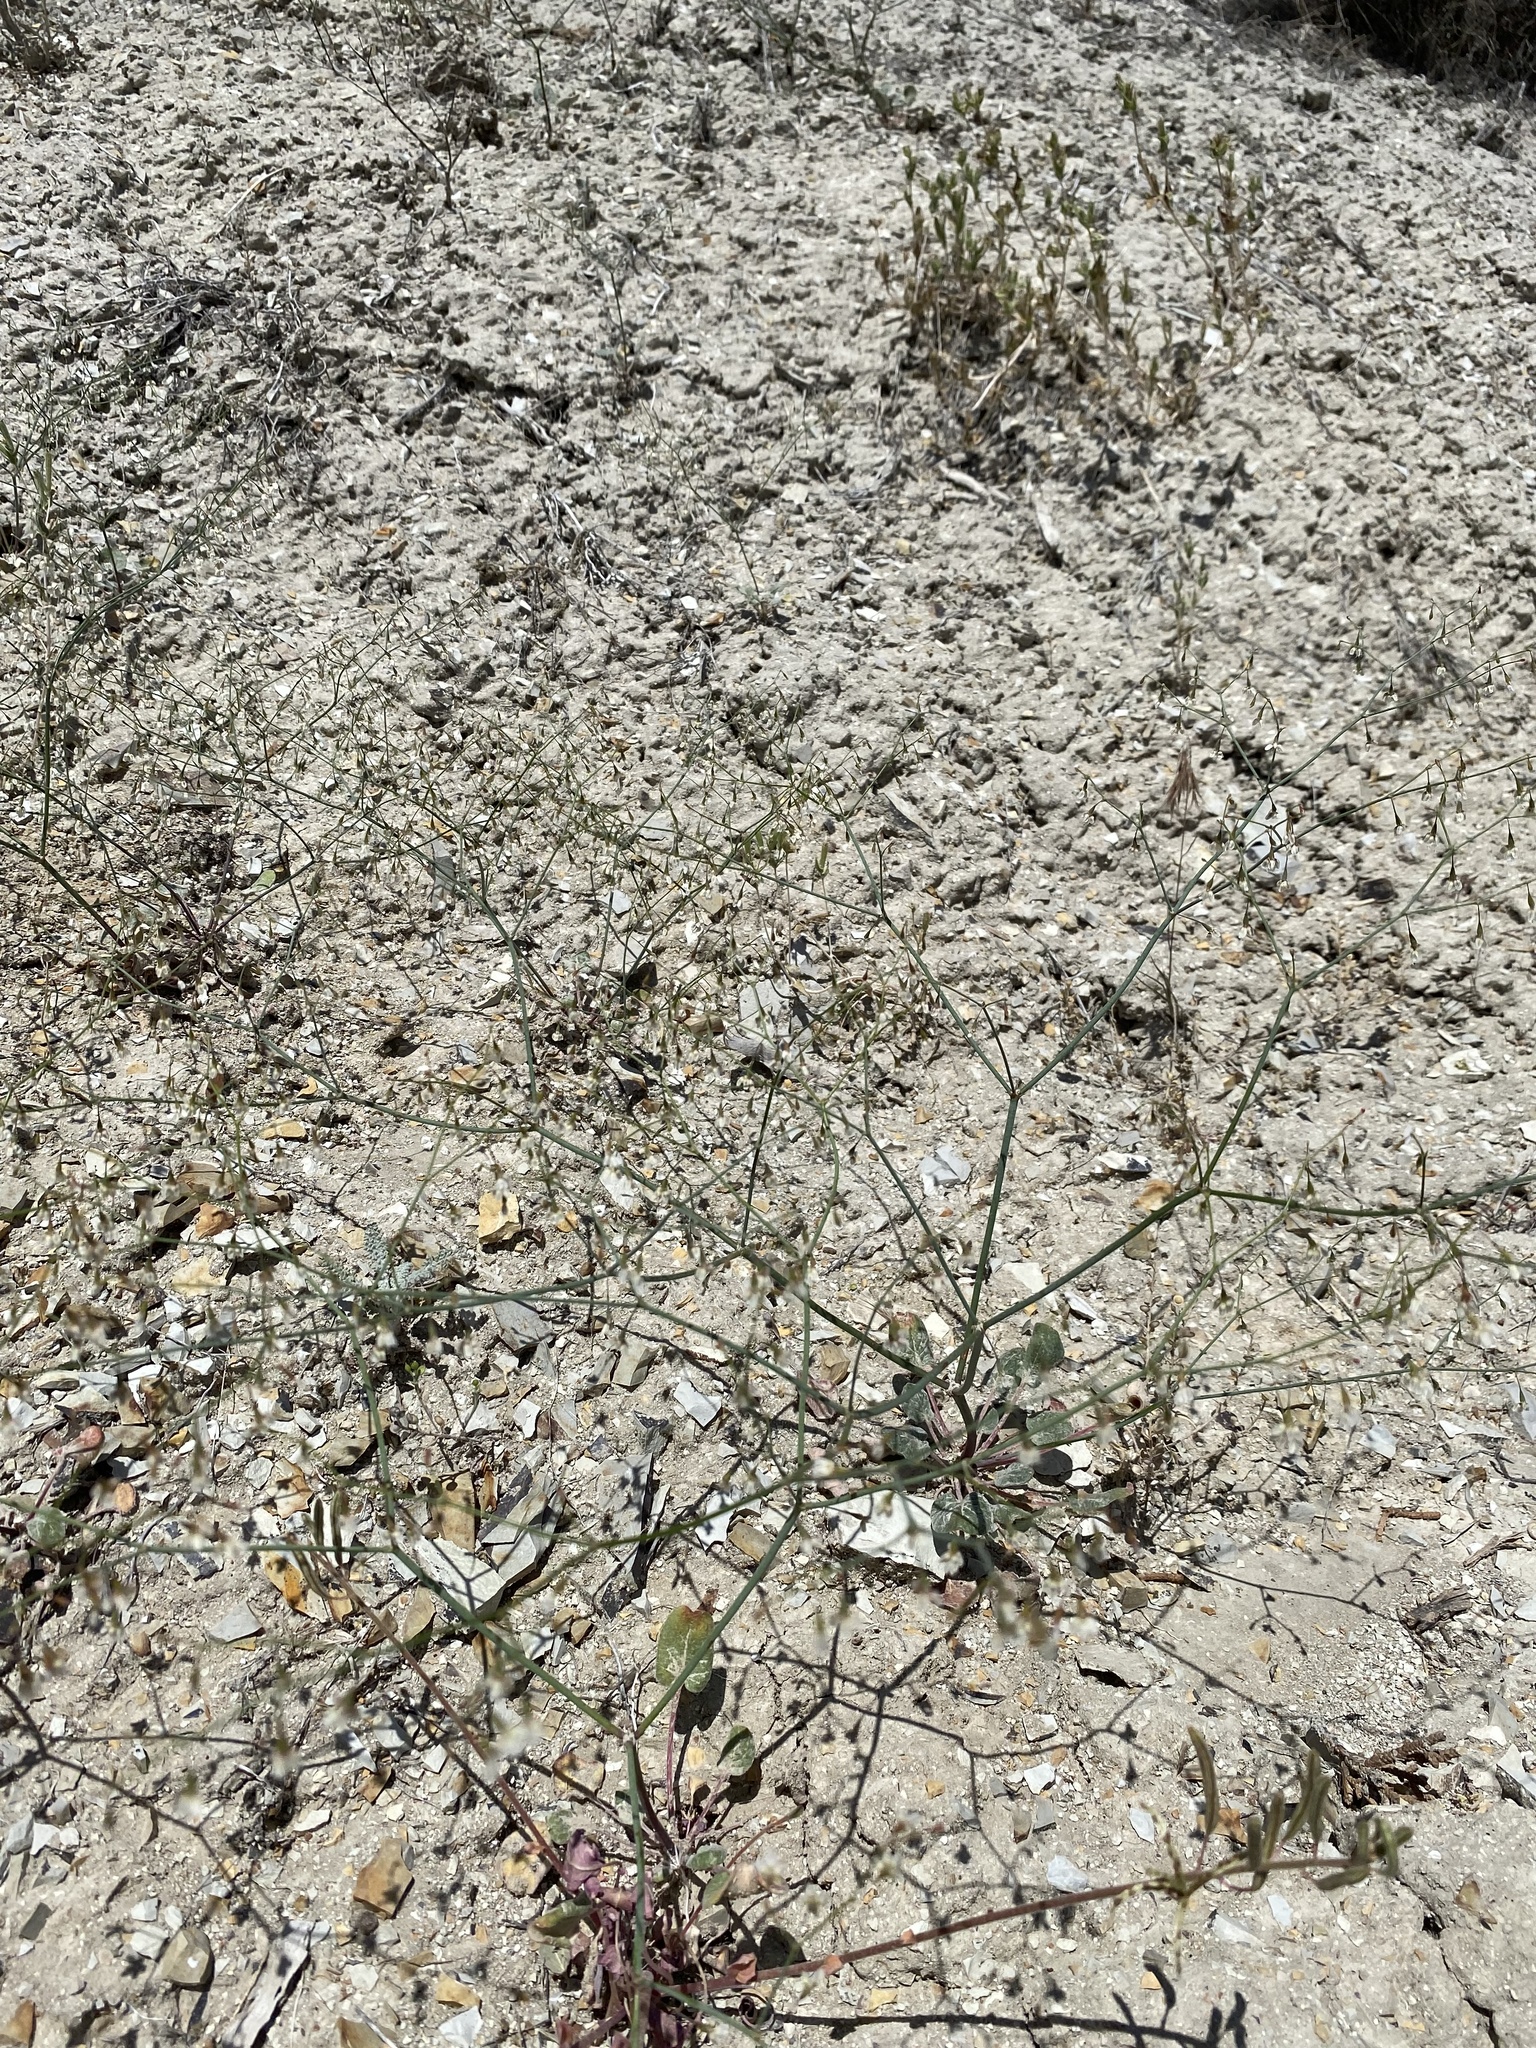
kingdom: Plantae
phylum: Tracheophyta
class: Magnoliopsida
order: Caryophyllales
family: Polygonaceae
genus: Eriogonum
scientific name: Eriogonum watsonii
